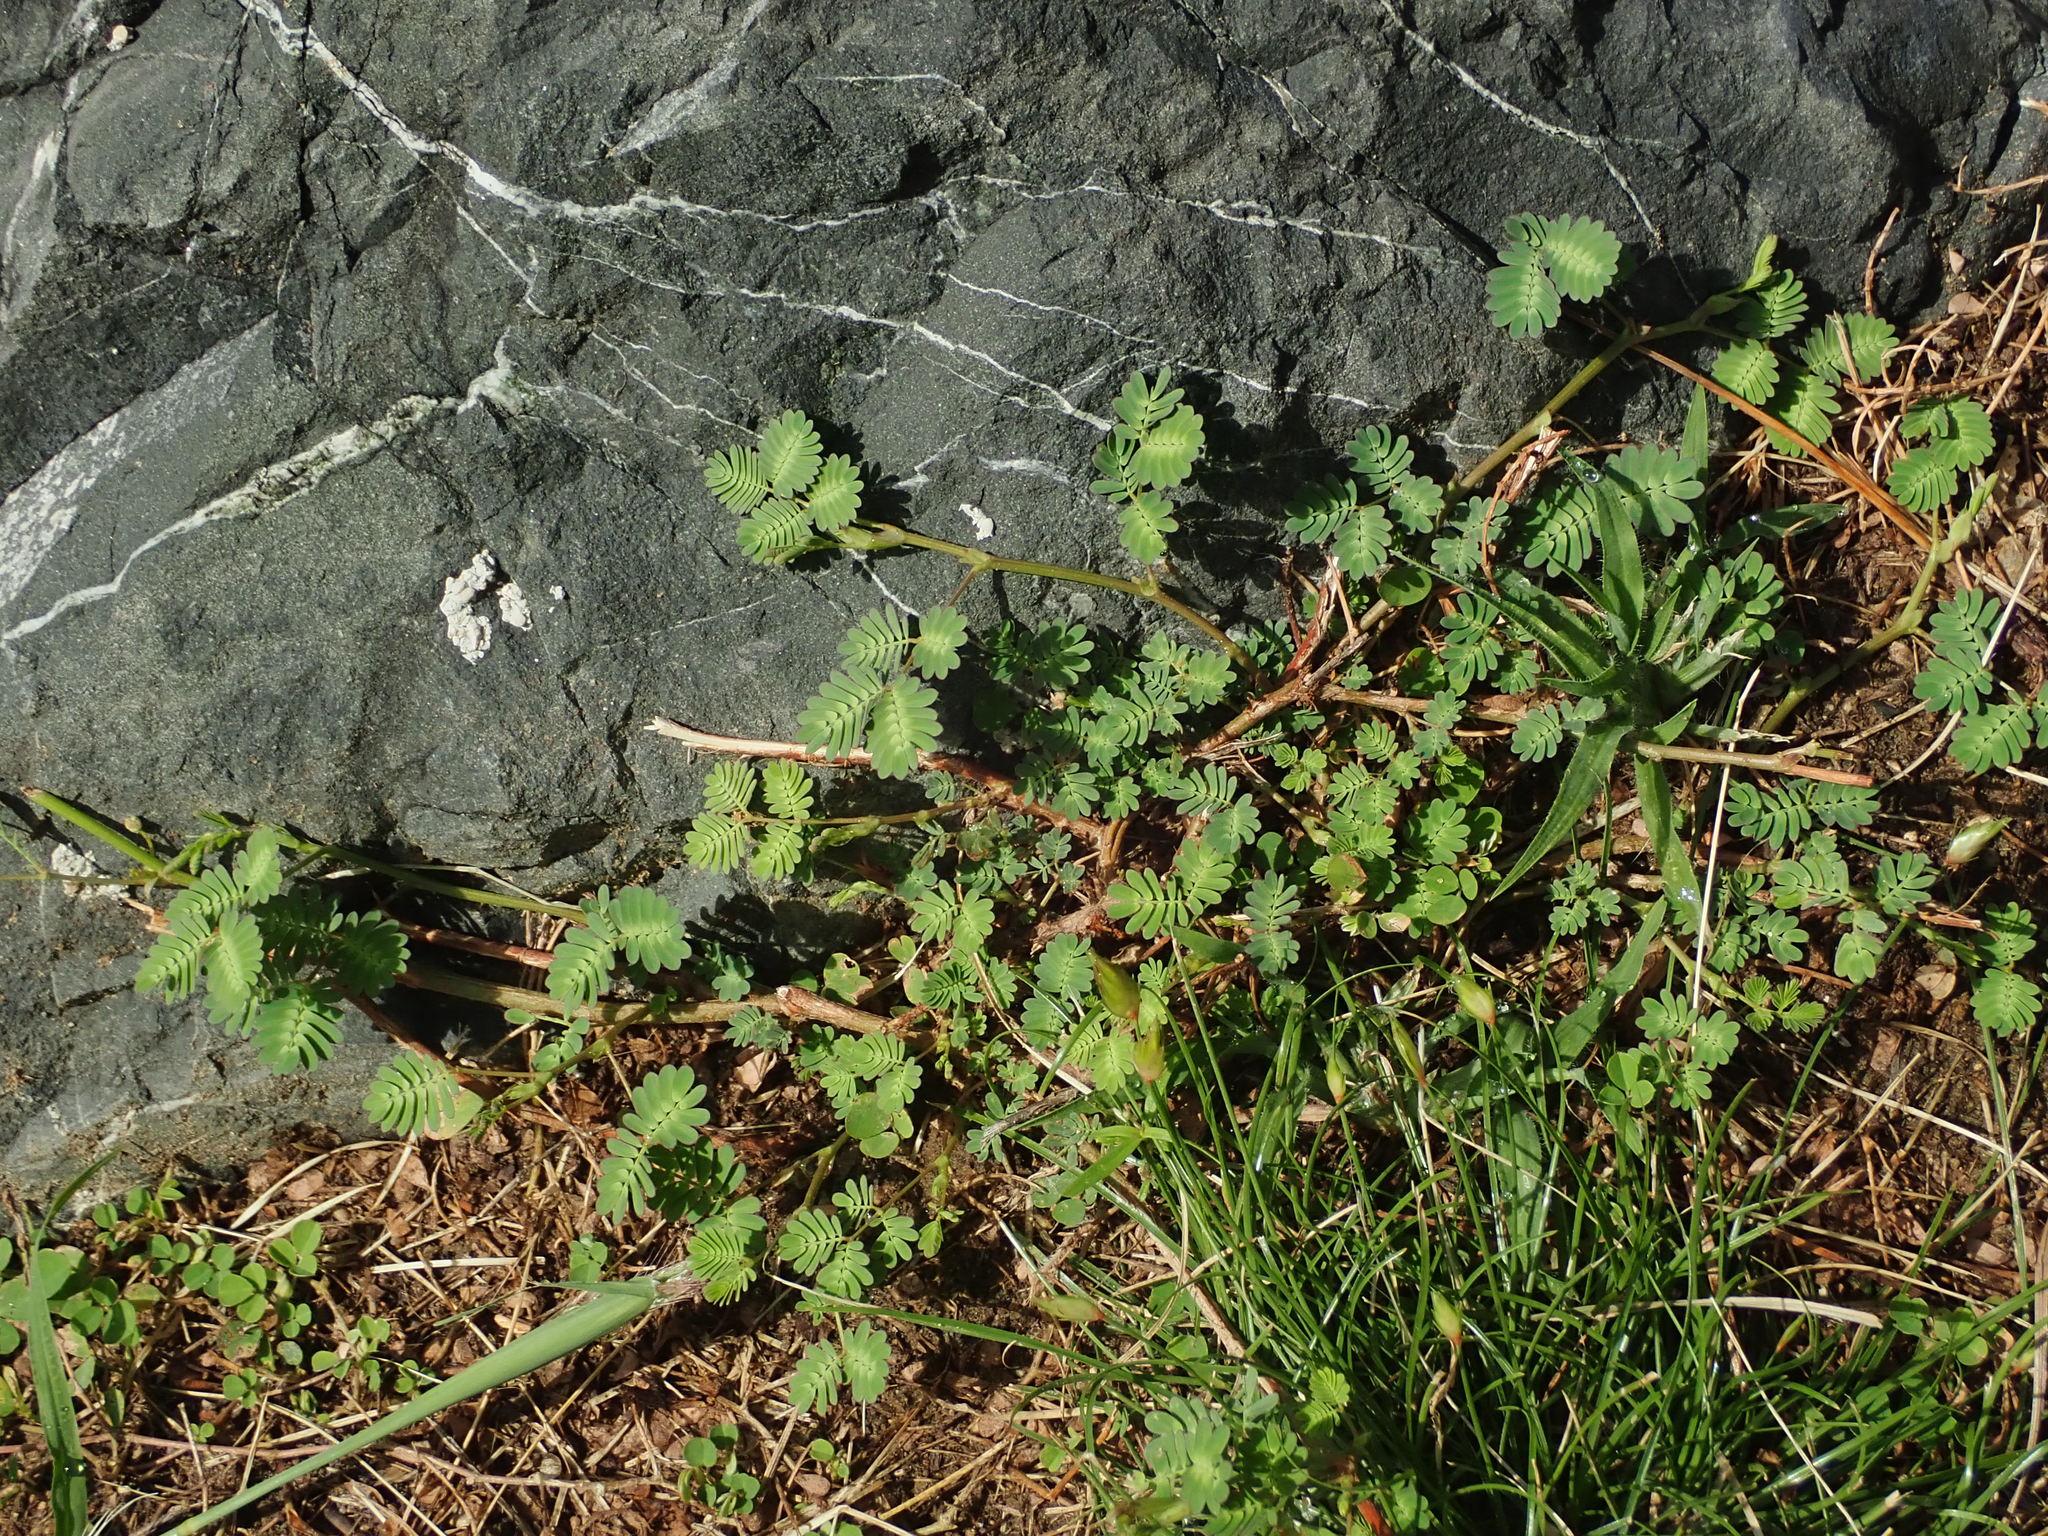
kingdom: Plantae
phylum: Tracheophyta
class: Magnoliopsida
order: Fabales
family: Fabaceae
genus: Mimosa
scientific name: Mimosa pudica
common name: Sensitive plant
